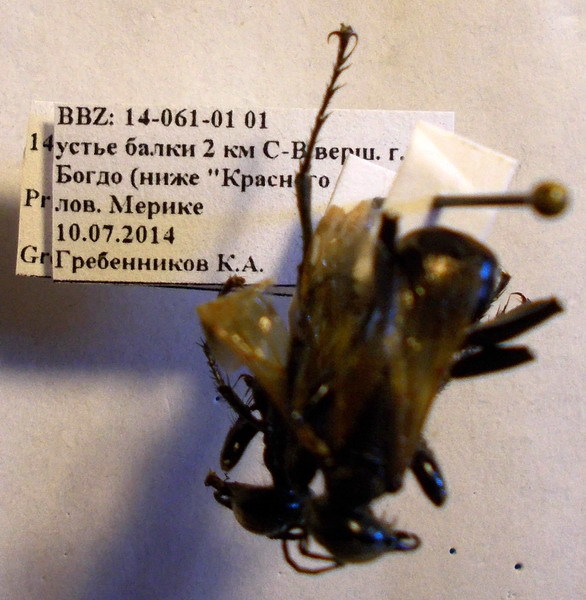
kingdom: Animalia
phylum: Arthropoda
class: Insecta
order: Hymenoptera
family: Sphecidae
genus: Prionyx
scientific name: Prionyx subfuscatus
